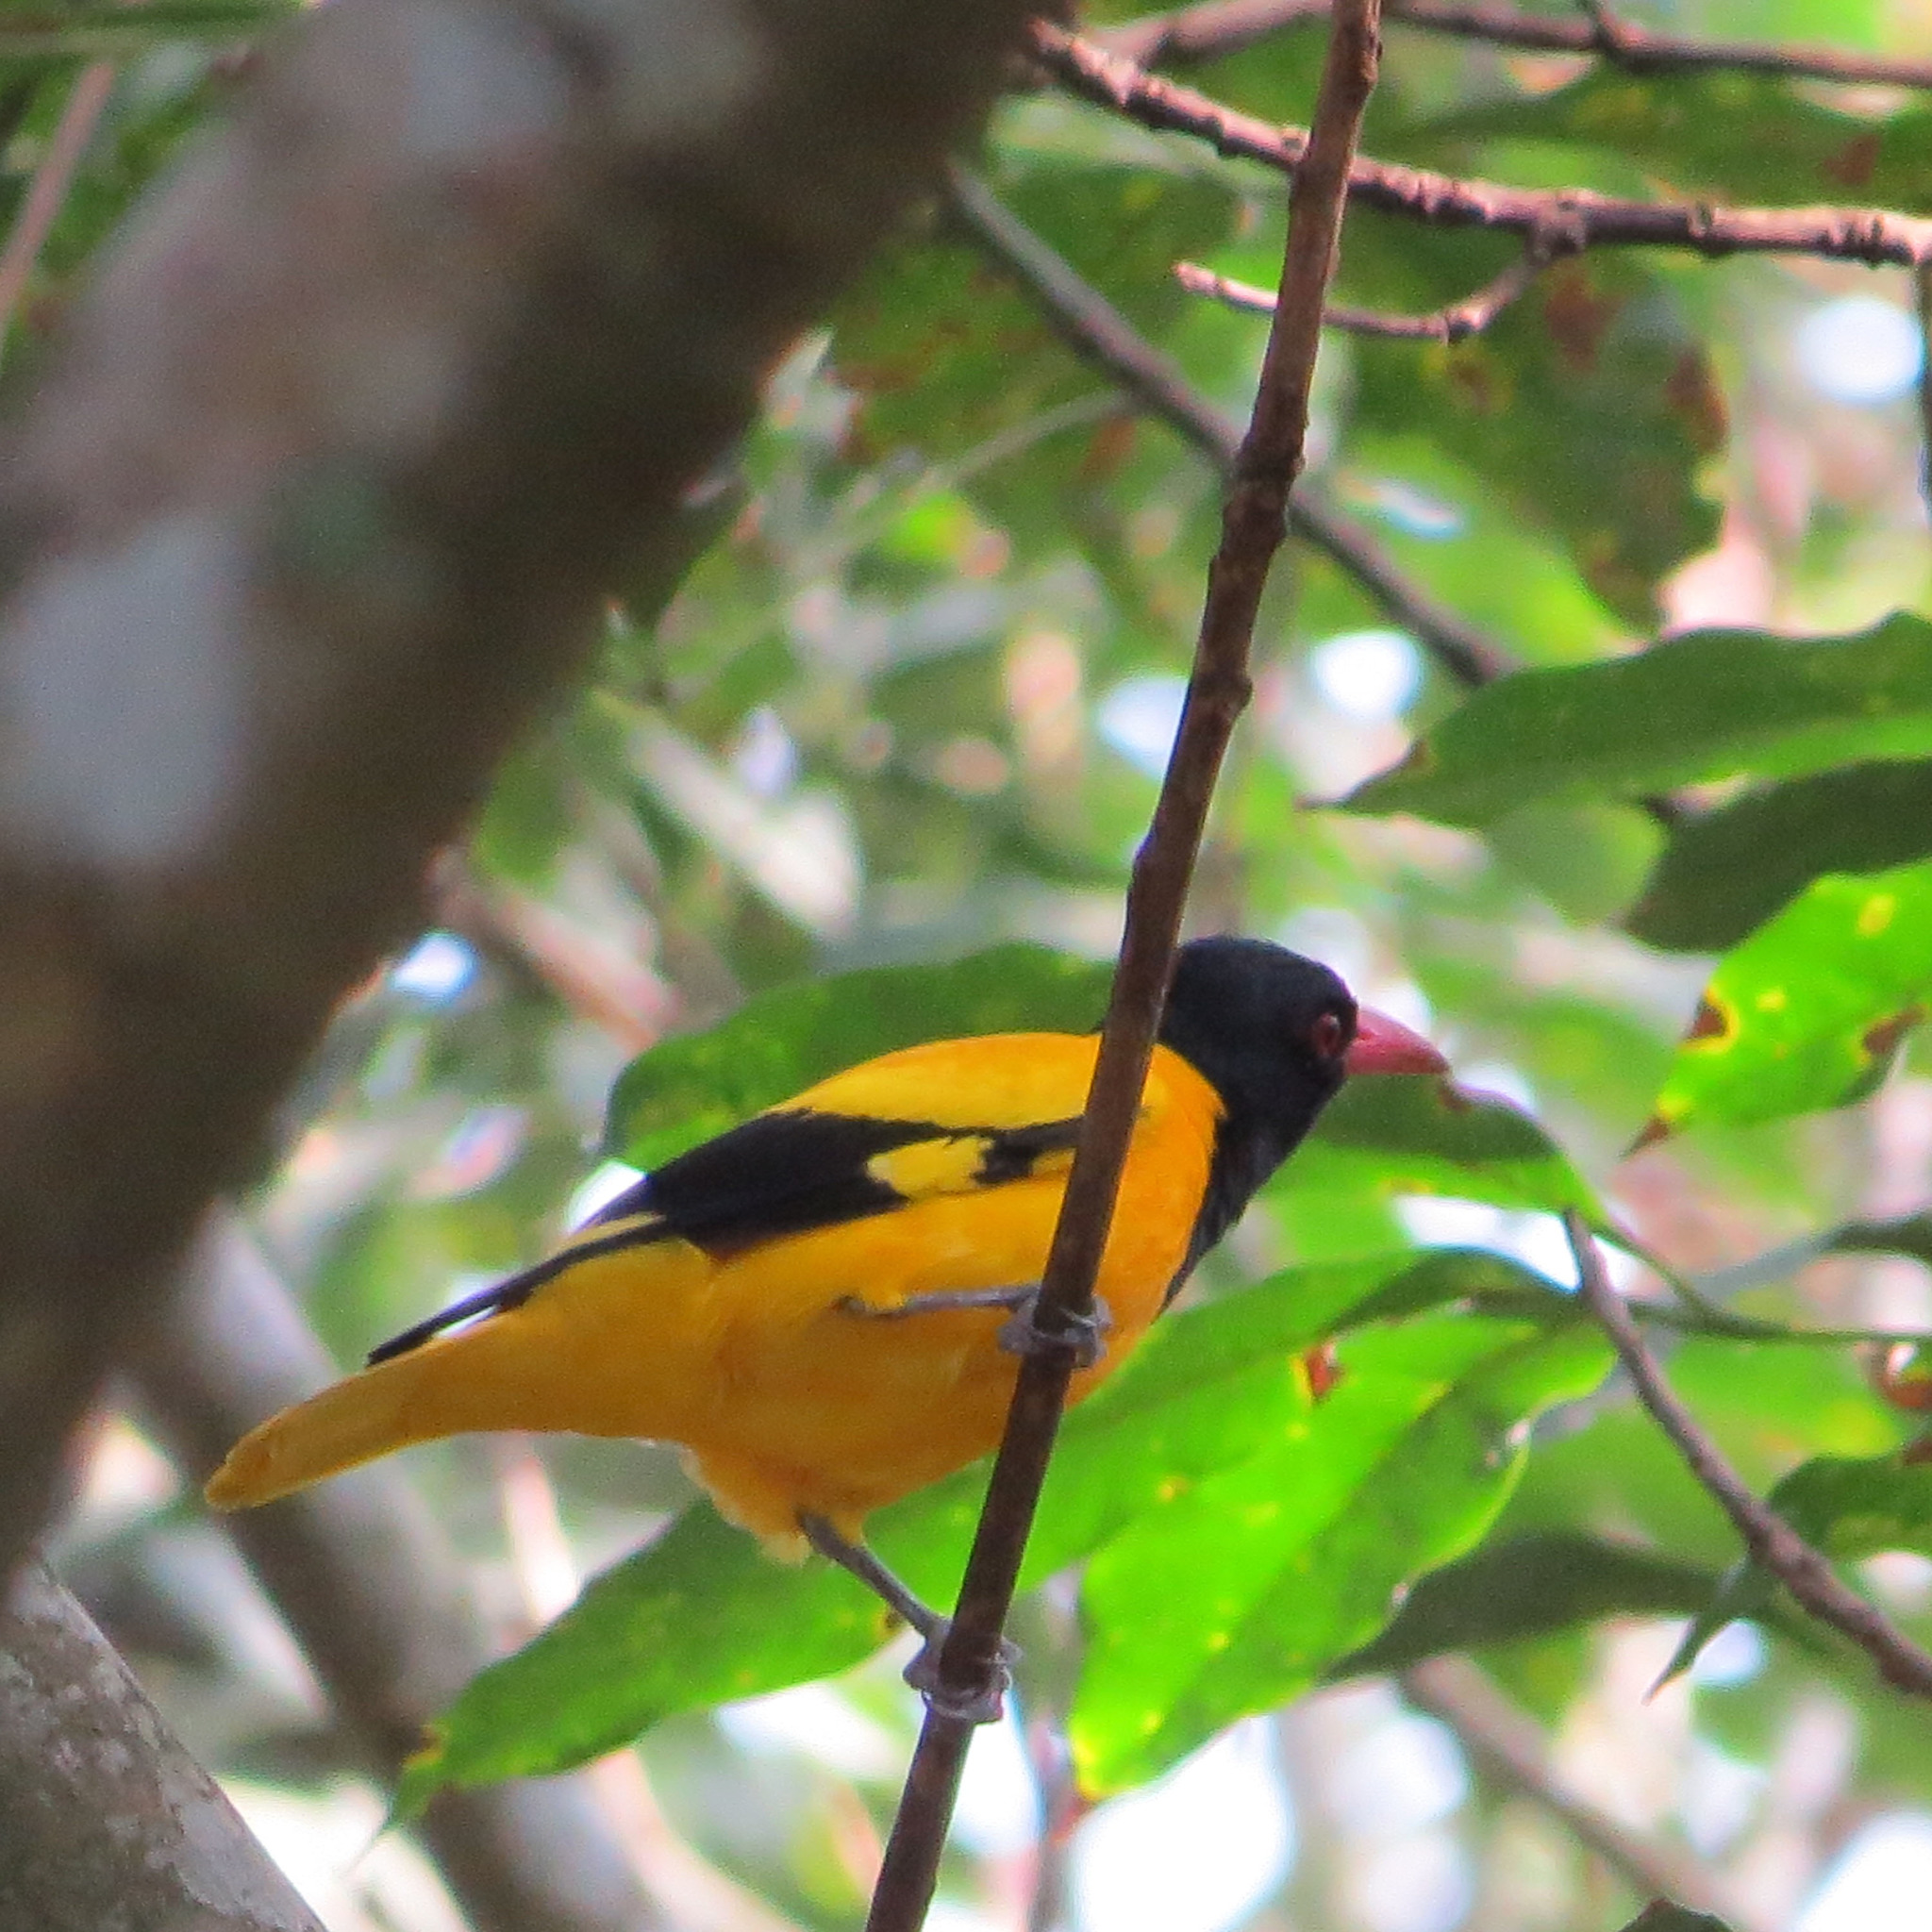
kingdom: Animalia
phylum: Chordata
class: Aves
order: Passeriformes
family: Oriolidae
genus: Oriolus
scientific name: Oriolus xanthornus
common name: Black-hooded oriole
